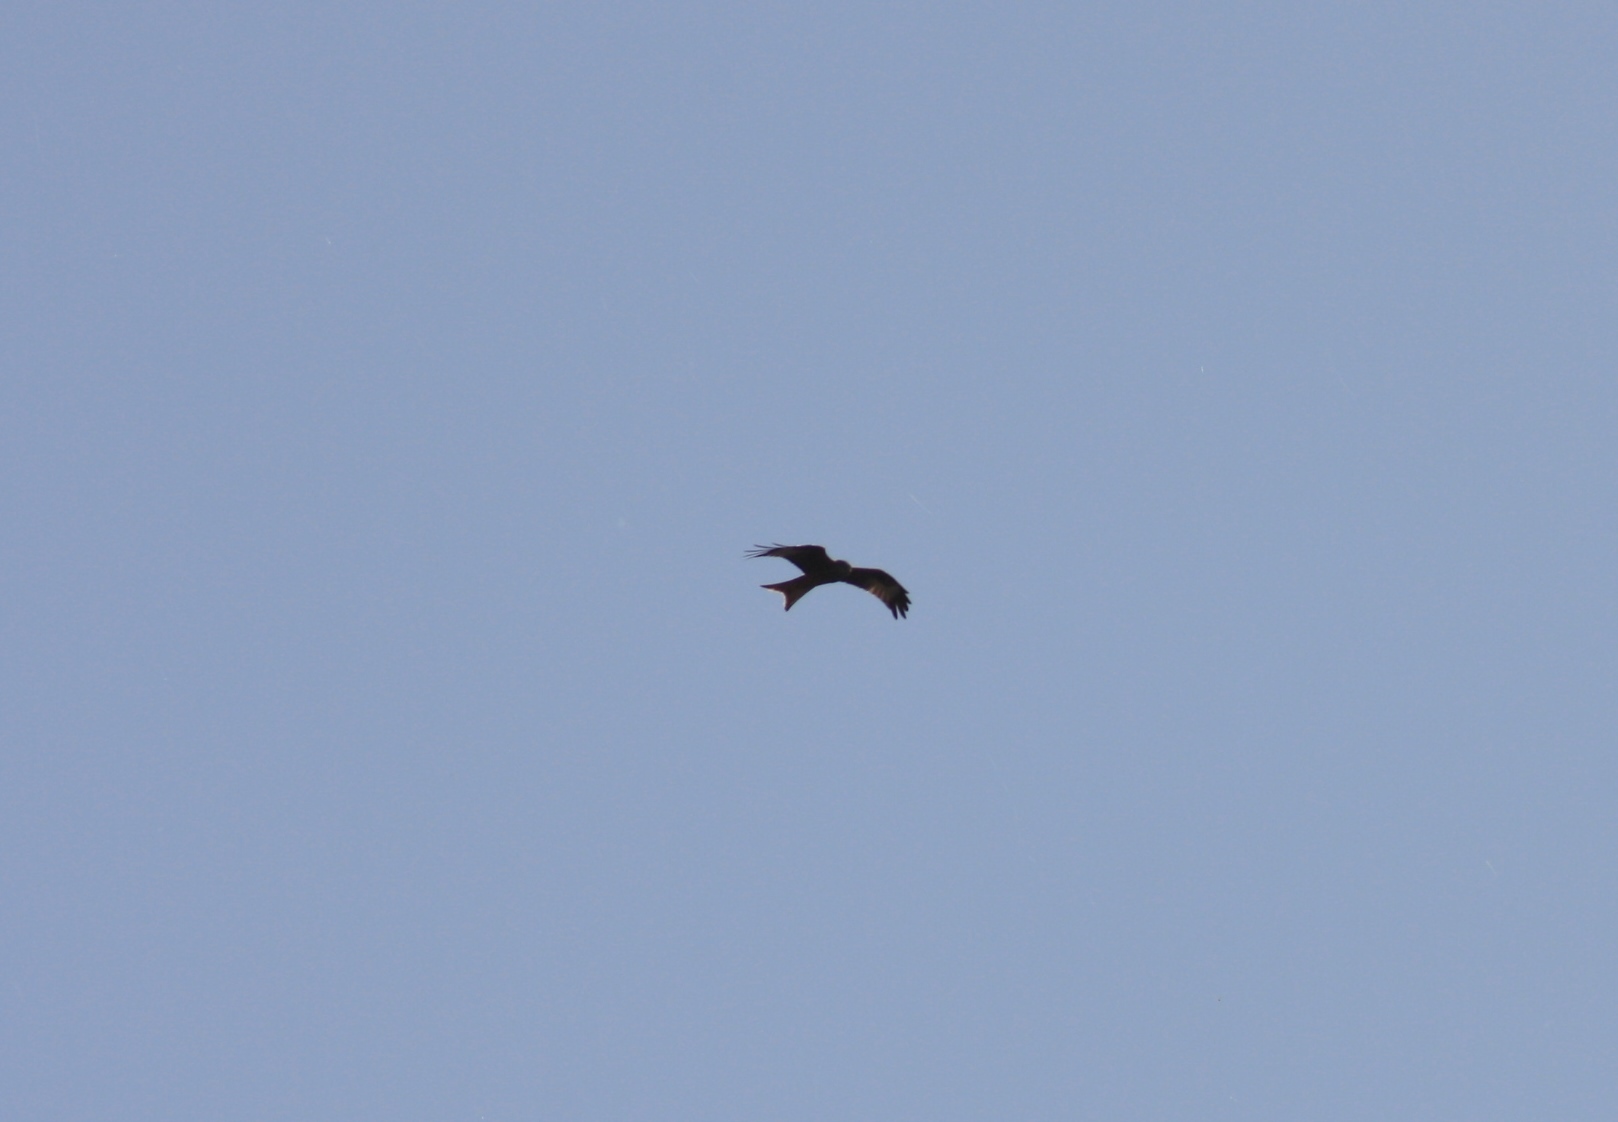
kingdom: Animalia
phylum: Chordata
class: Aves
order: Accipitriformes
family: Accipitridae
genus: Milvus
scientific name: Milvus milvus
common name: Red kite
